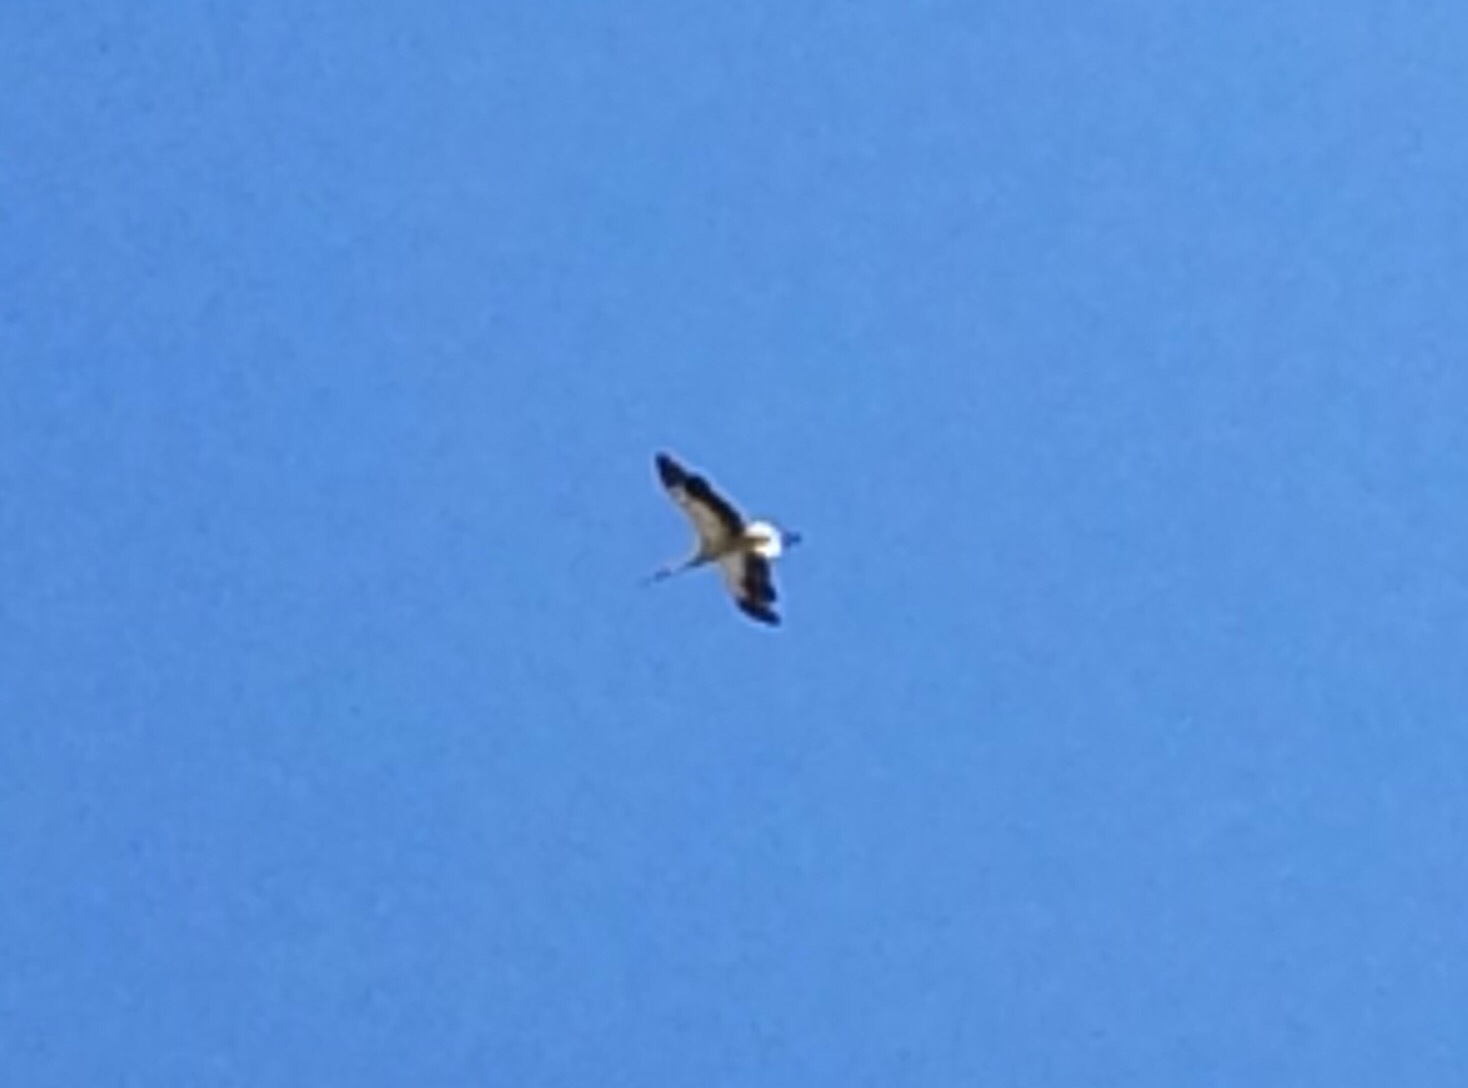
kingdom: Animalia
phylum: Chordata
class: Aves
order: Ciconiiformes
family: Ciconiidae
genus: Ciconia
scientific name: Ciconia ciconia
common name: White stork
